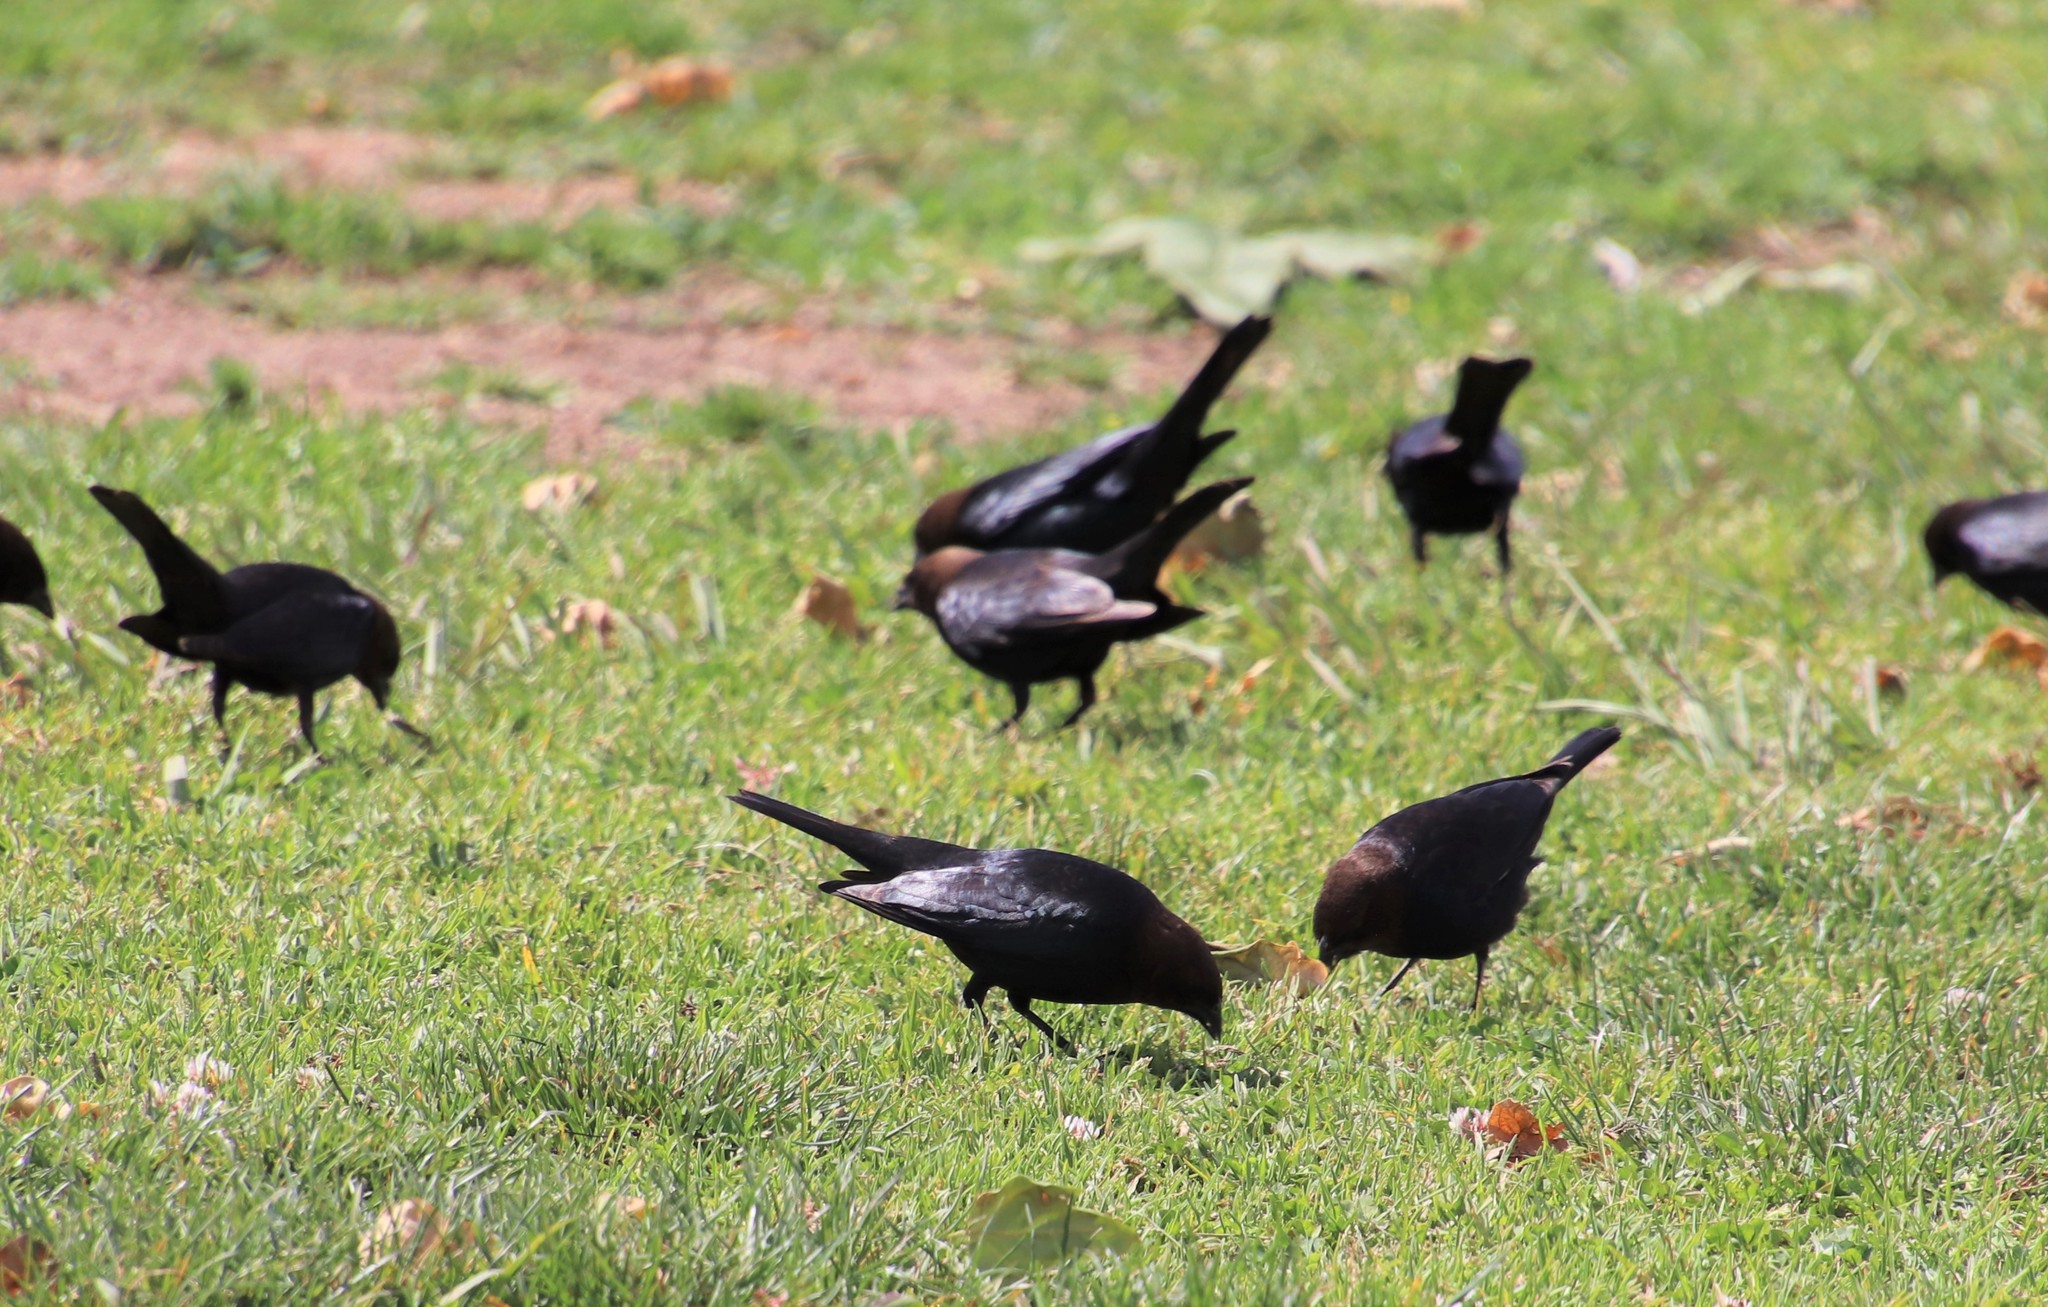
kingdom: Animalia
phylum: Chordata
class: Aves
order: Passeriformes
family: Icteridae
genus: Molothrus
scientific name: Molothrus ater
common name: Brown-headed cowbird
